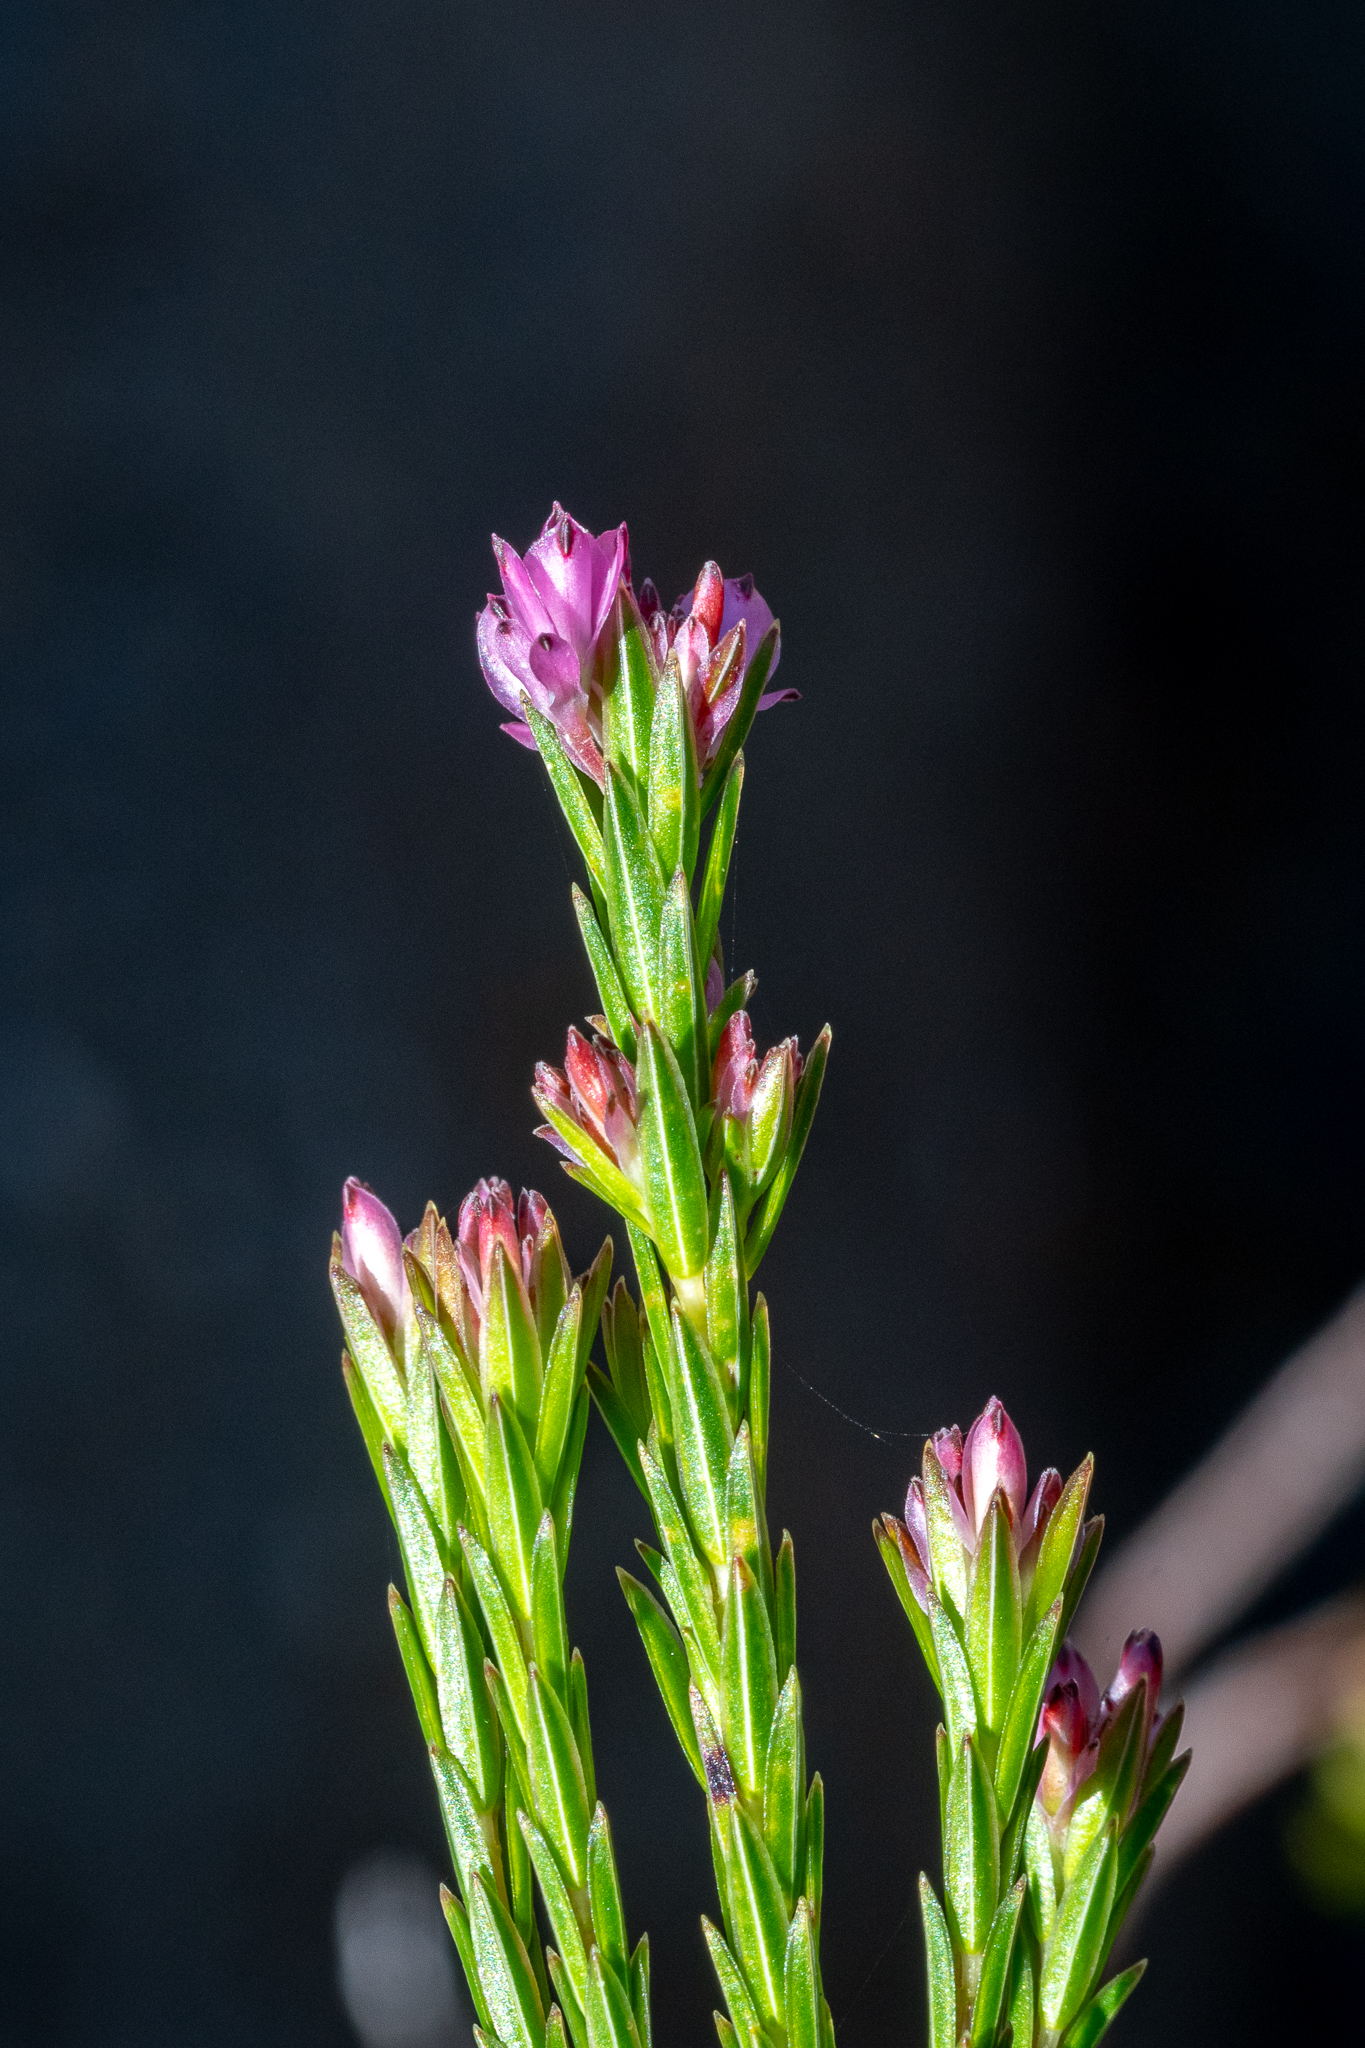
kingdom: Plantae
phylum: Tracheophyta
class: Magnoliopsida
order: Ericales
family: Ericaceae
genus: Erica
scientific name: Erica corifolia
